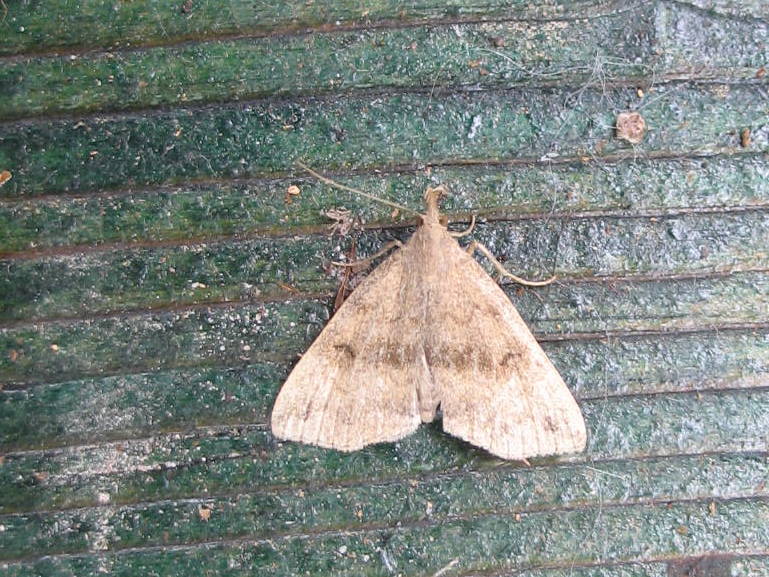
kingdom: Animalia
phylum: Arthropoda
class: Insecta
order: Lepidoptera
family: Erebidae
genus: Phalaenostola
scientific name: Phalaenostola eumelusalis
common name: Dark phalaenostola moth
